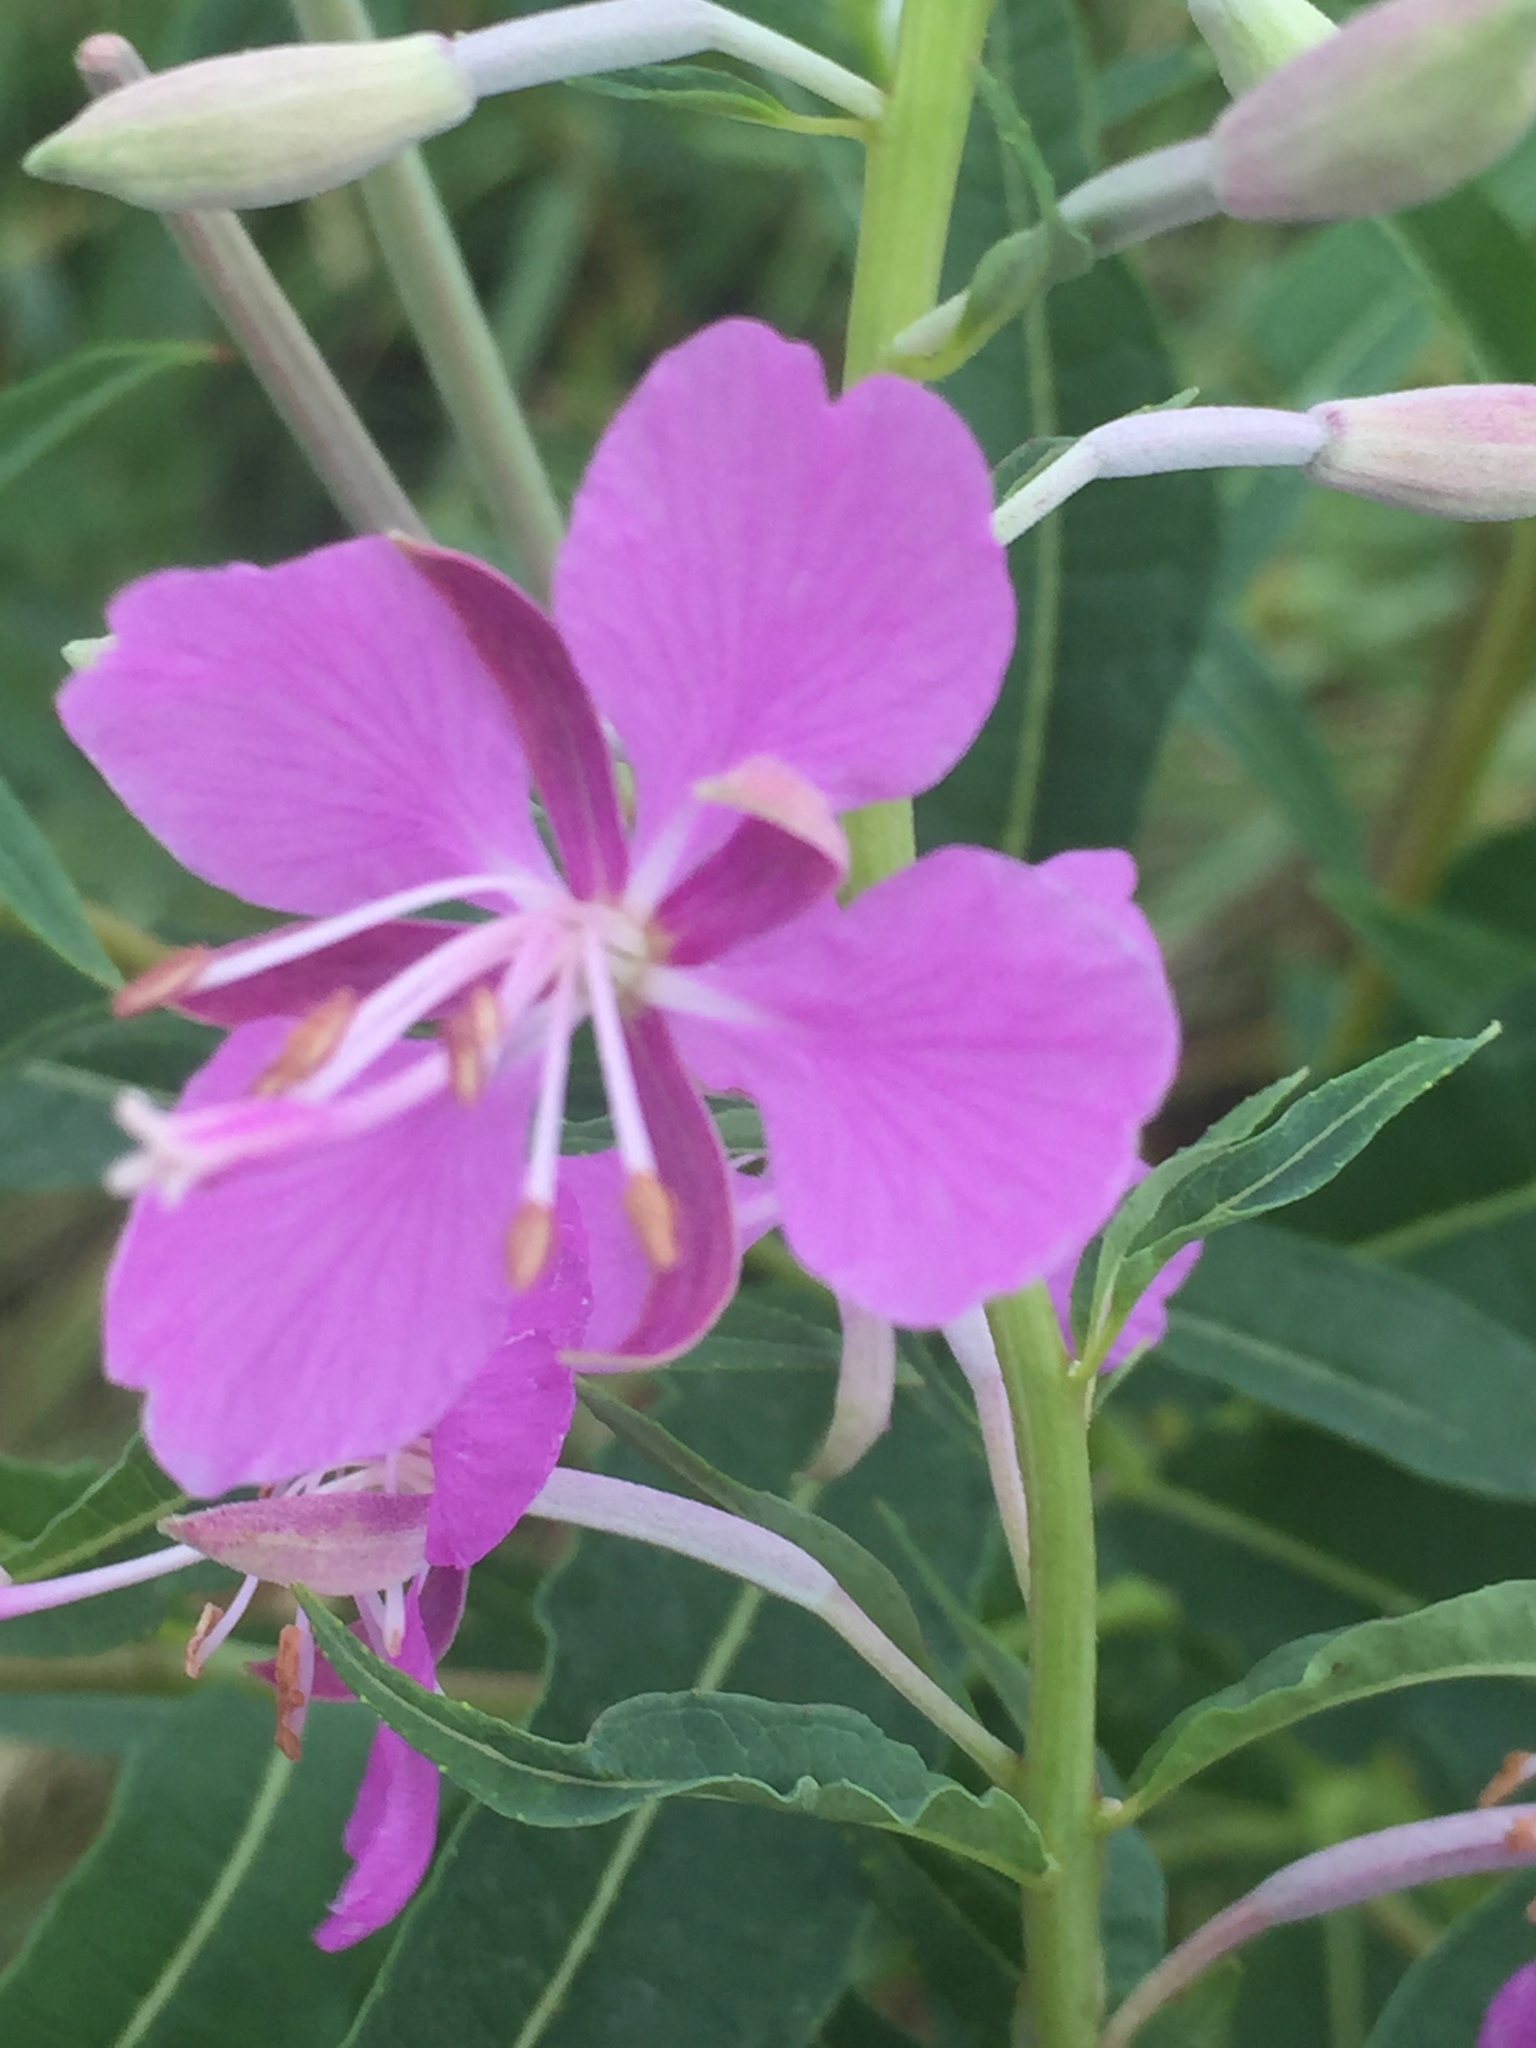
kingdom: Plantae
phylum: Tracheophyta
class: Magnoliopsida
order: Myrtales
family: Onagraceae
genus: Chamaenerion
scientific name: Chamaenerion angustifolium
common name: Fireweed
